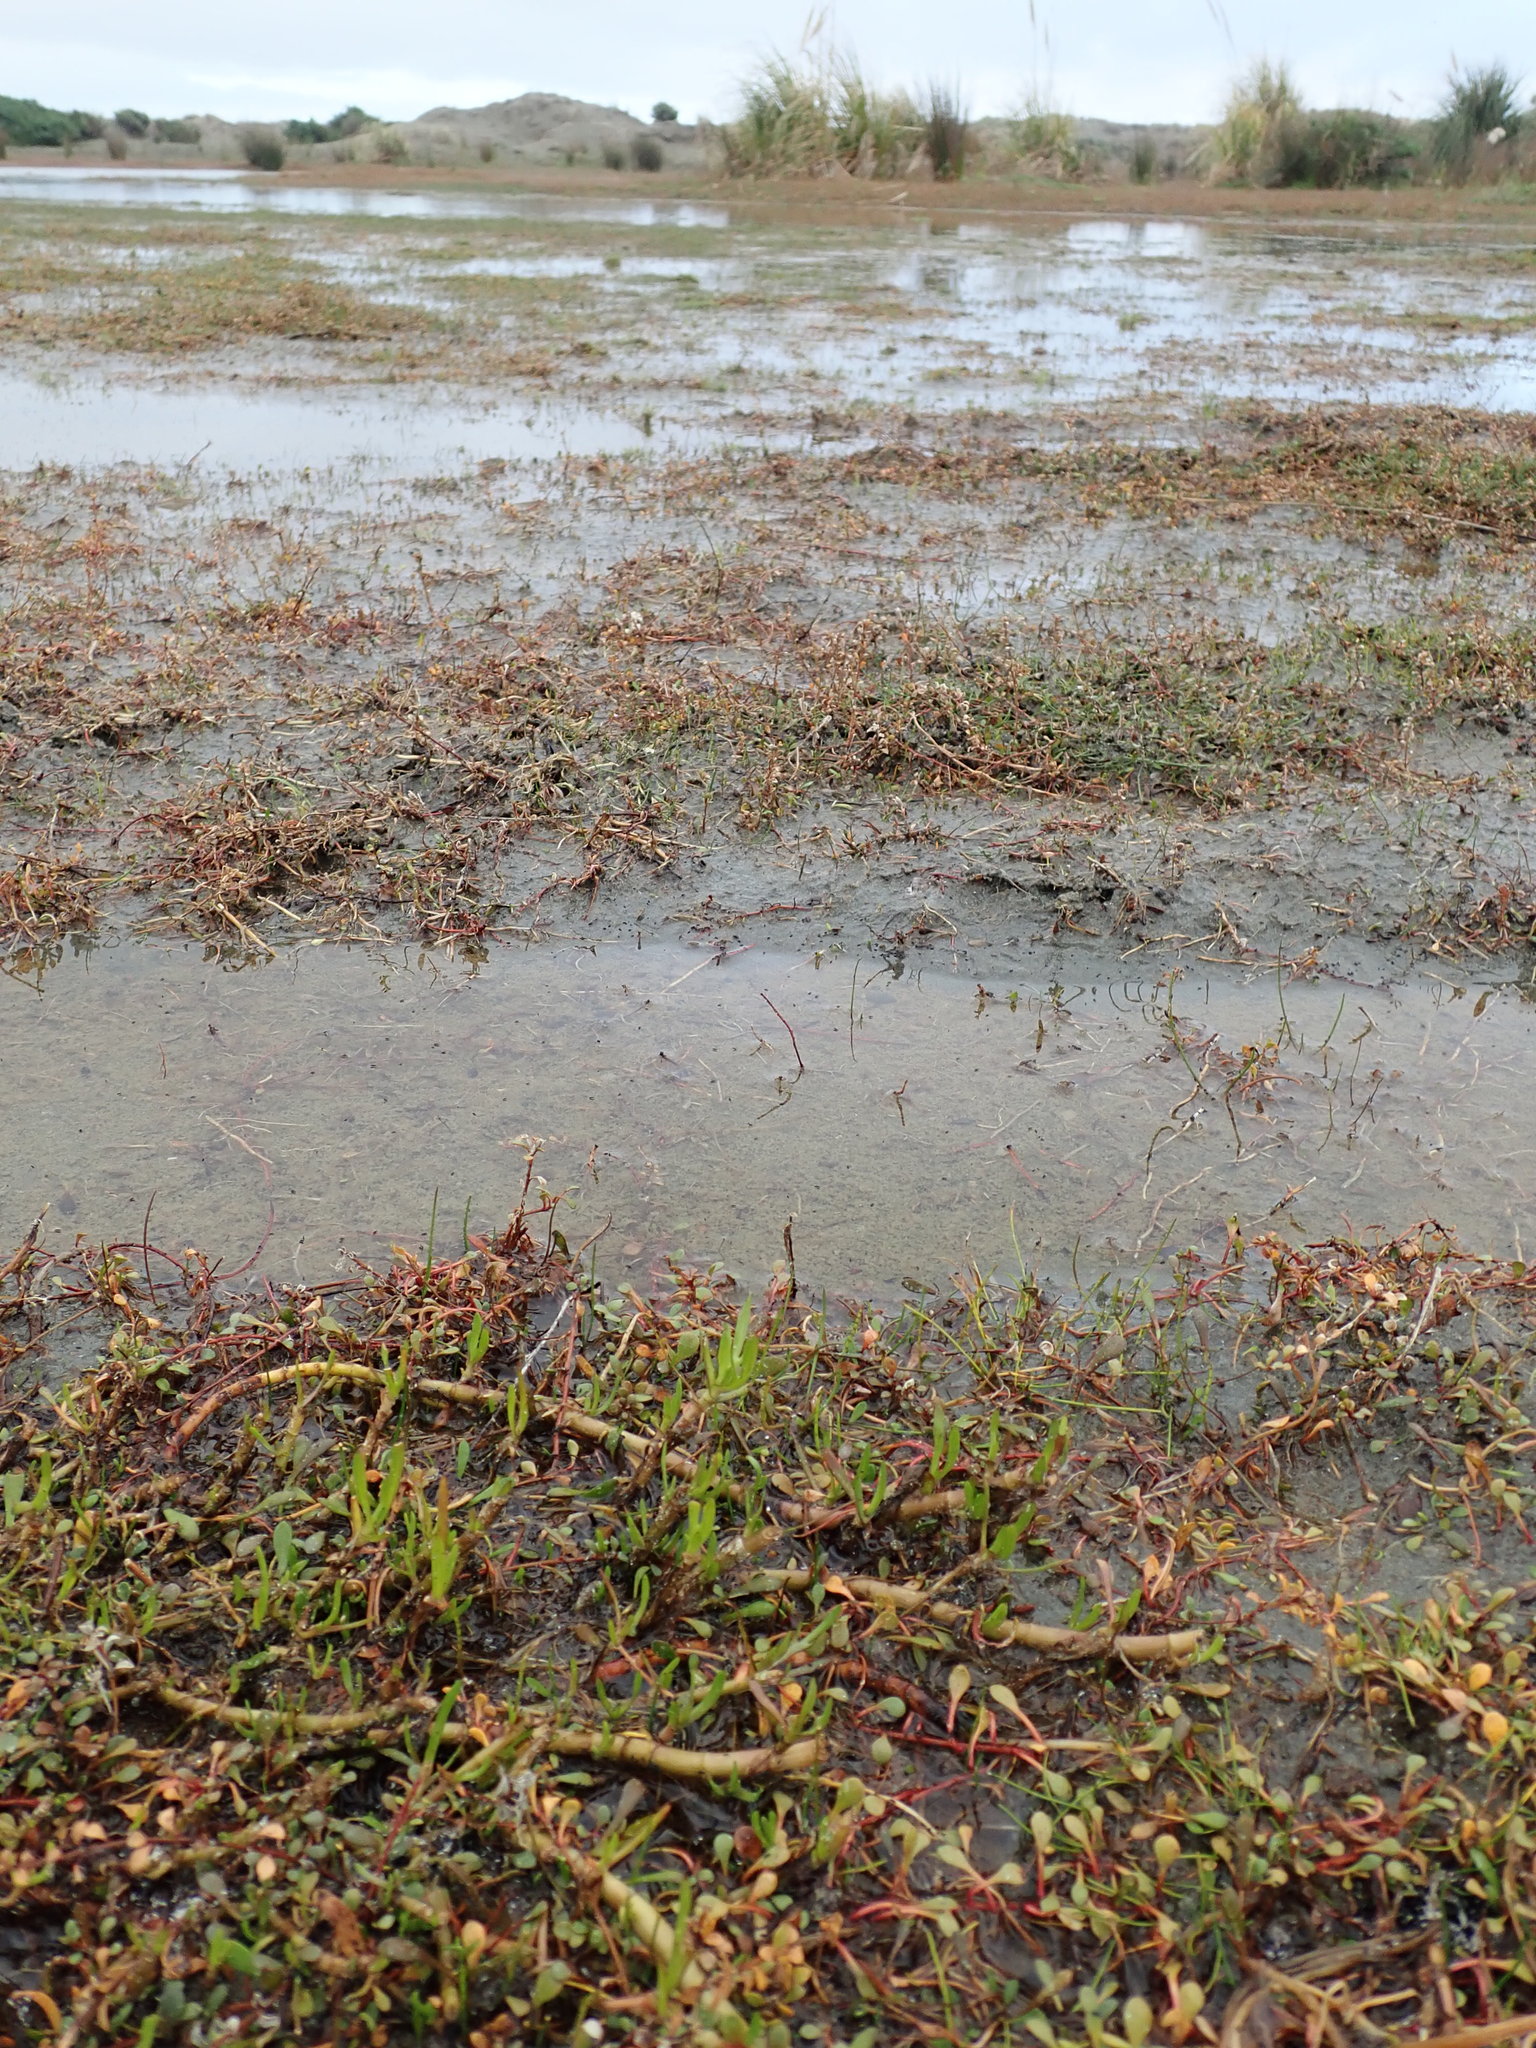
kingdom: Plantae
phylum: Tracheophyta
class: Magnoliopsida
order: Asterales
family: Asteraceae
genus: Cotula
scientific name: Cotula coronopifolia
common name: Buttonweed
